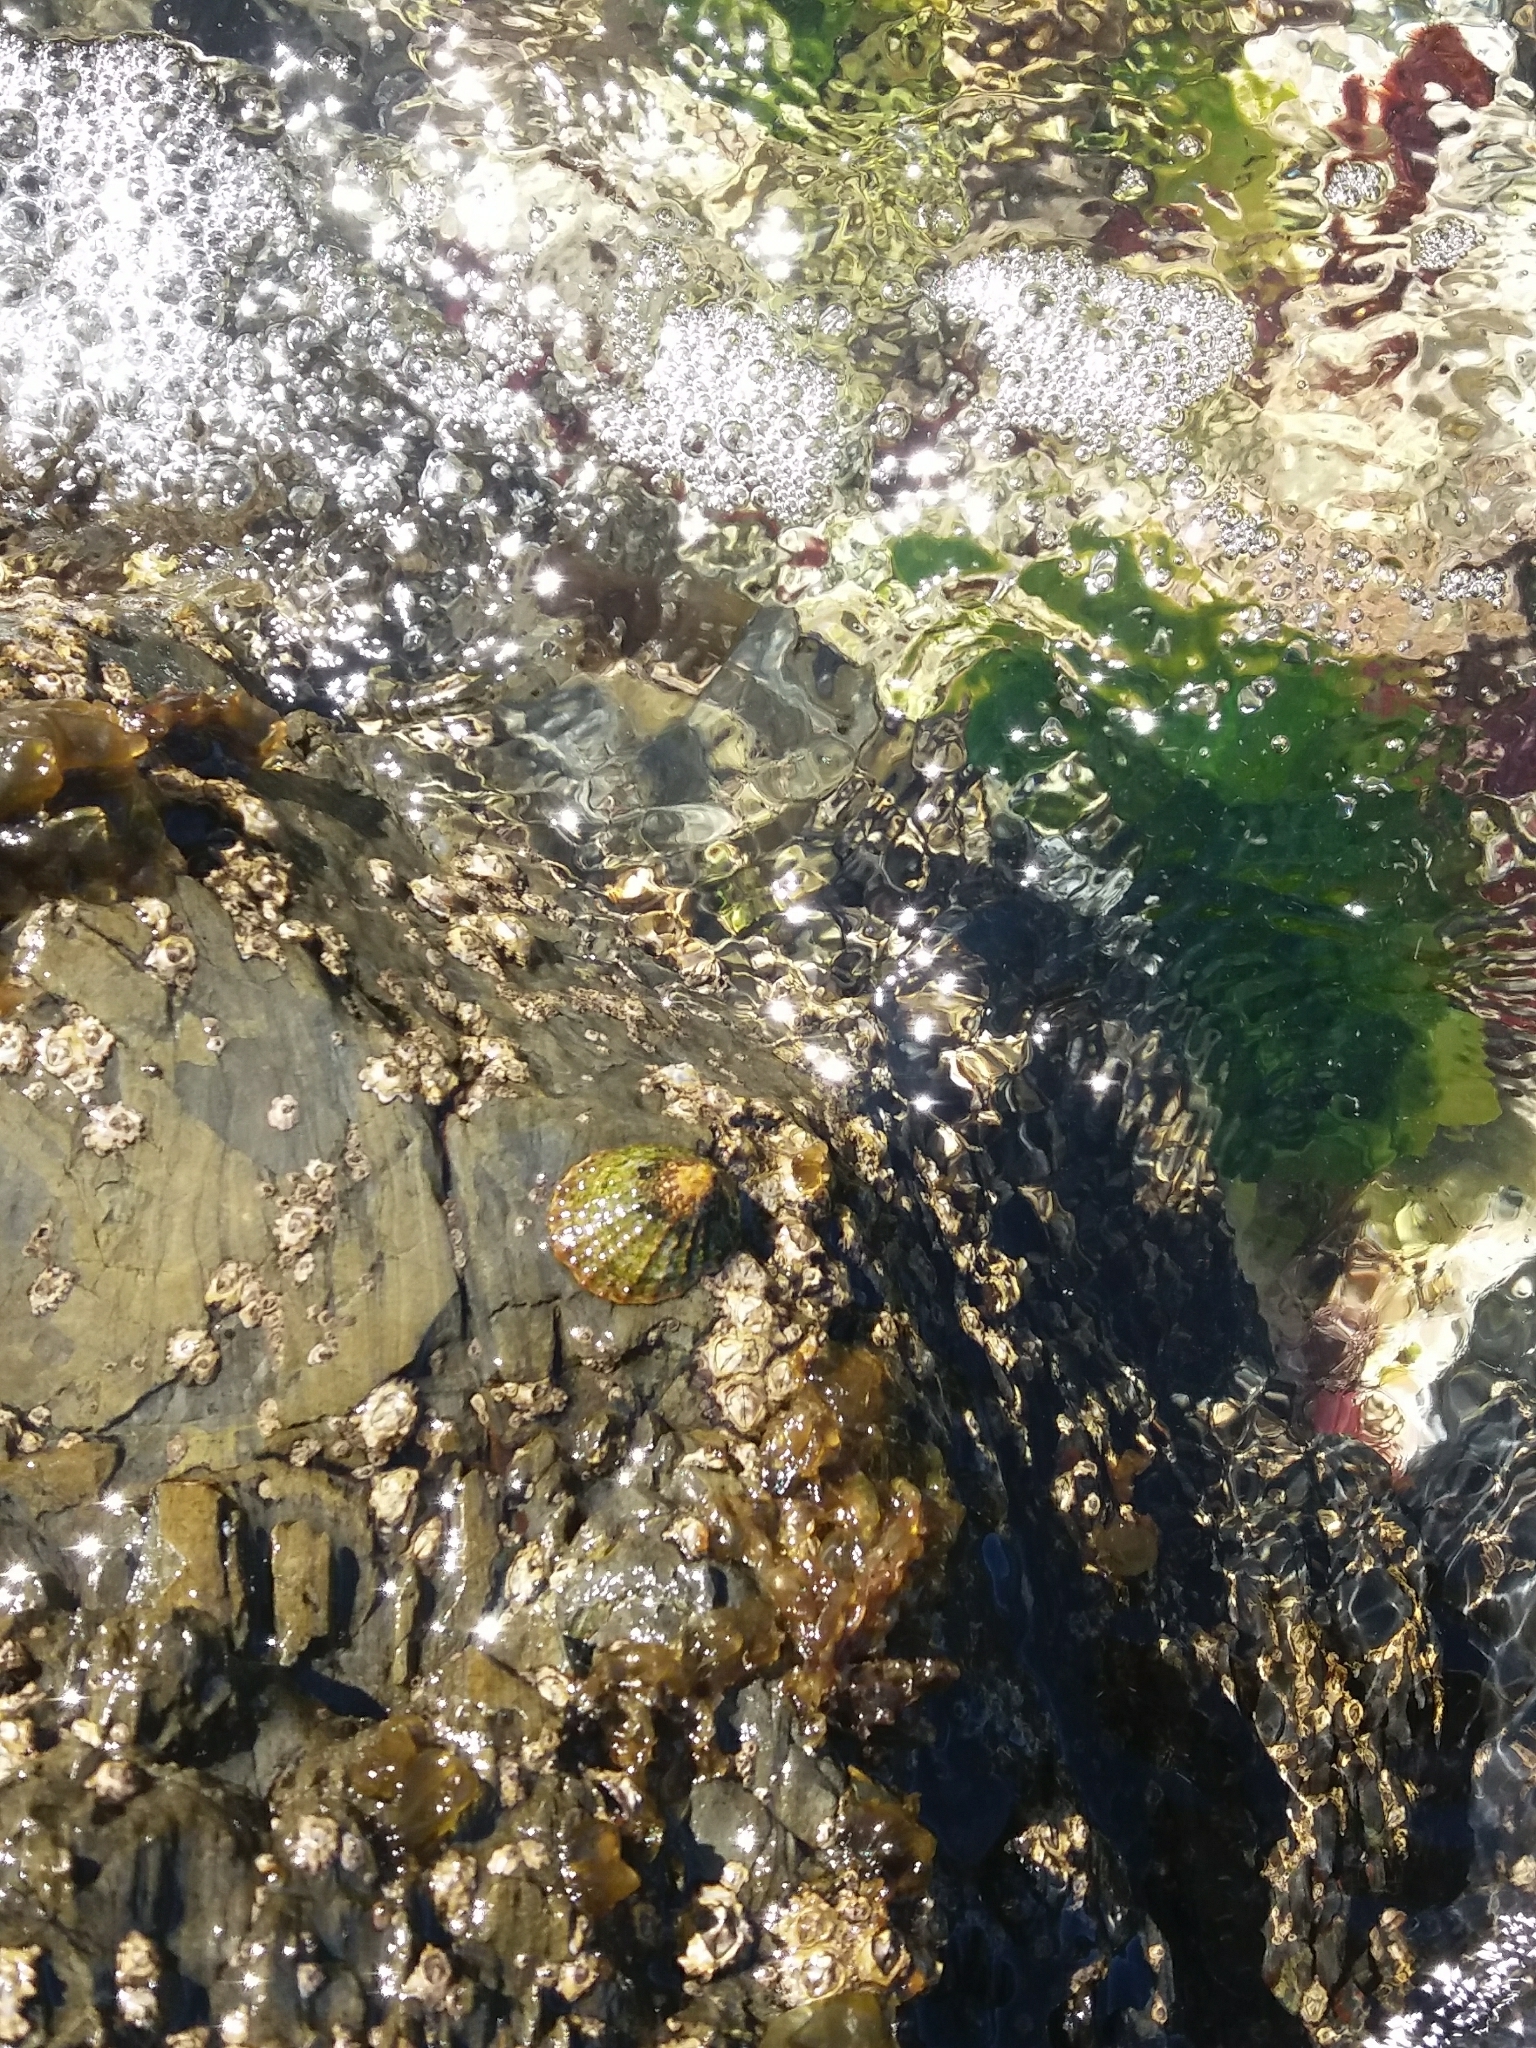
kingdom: Animalia
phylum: Mollusca
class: Gastropoda
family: Nacellidae
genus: Cellana
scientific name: Cellana denticulata
